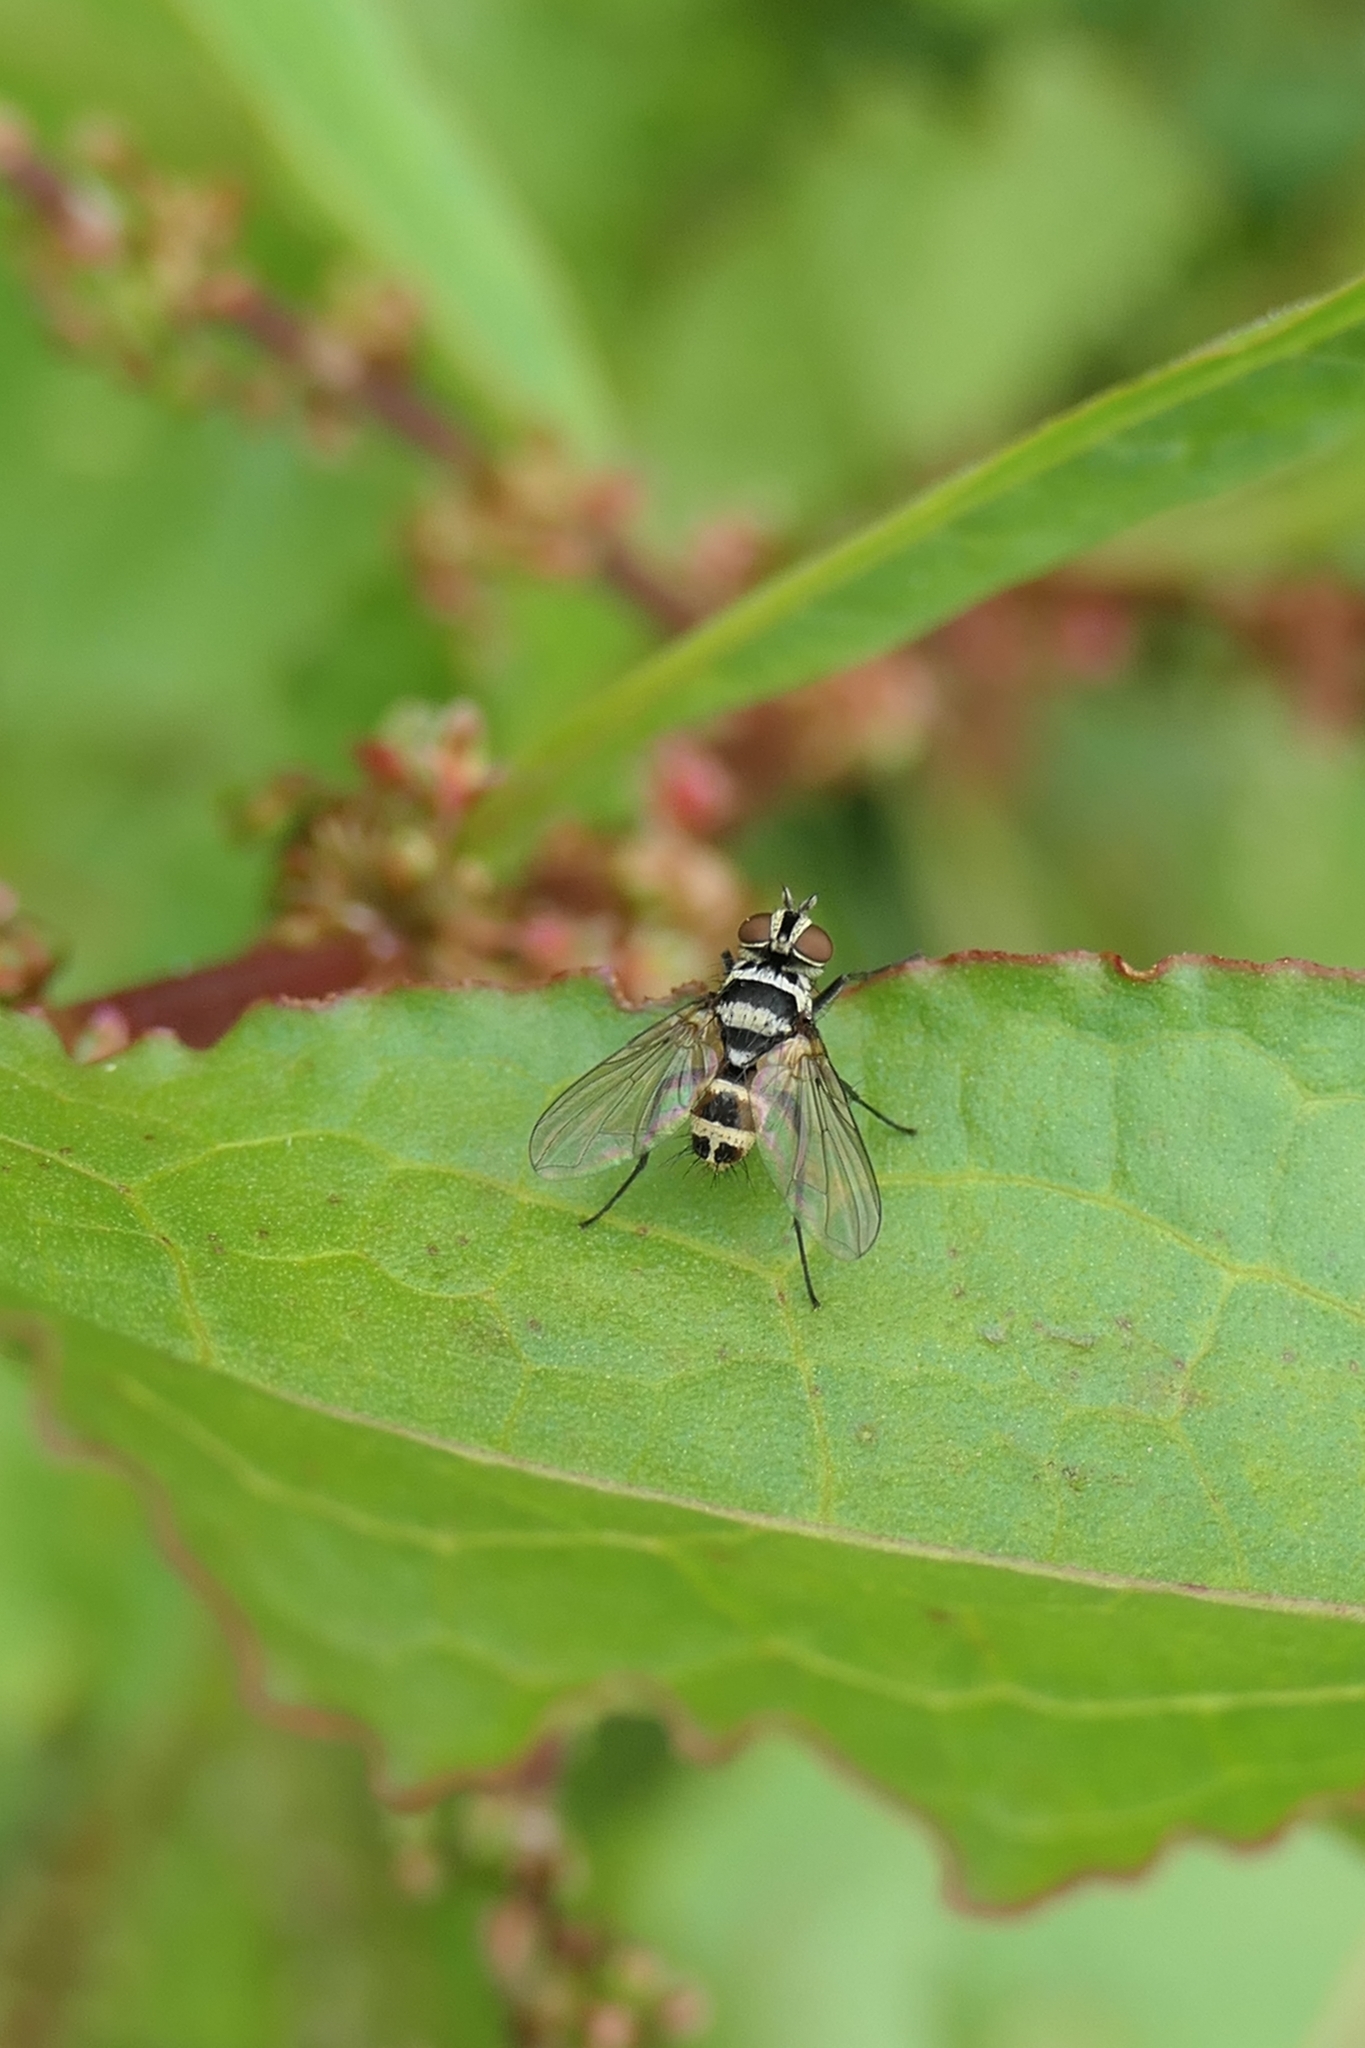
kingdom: Animalia
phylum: Arthropoda
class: Insecta
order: Diptera
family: Tachinidae
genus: Trigonospila
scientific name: Trigonospila brevifacies
